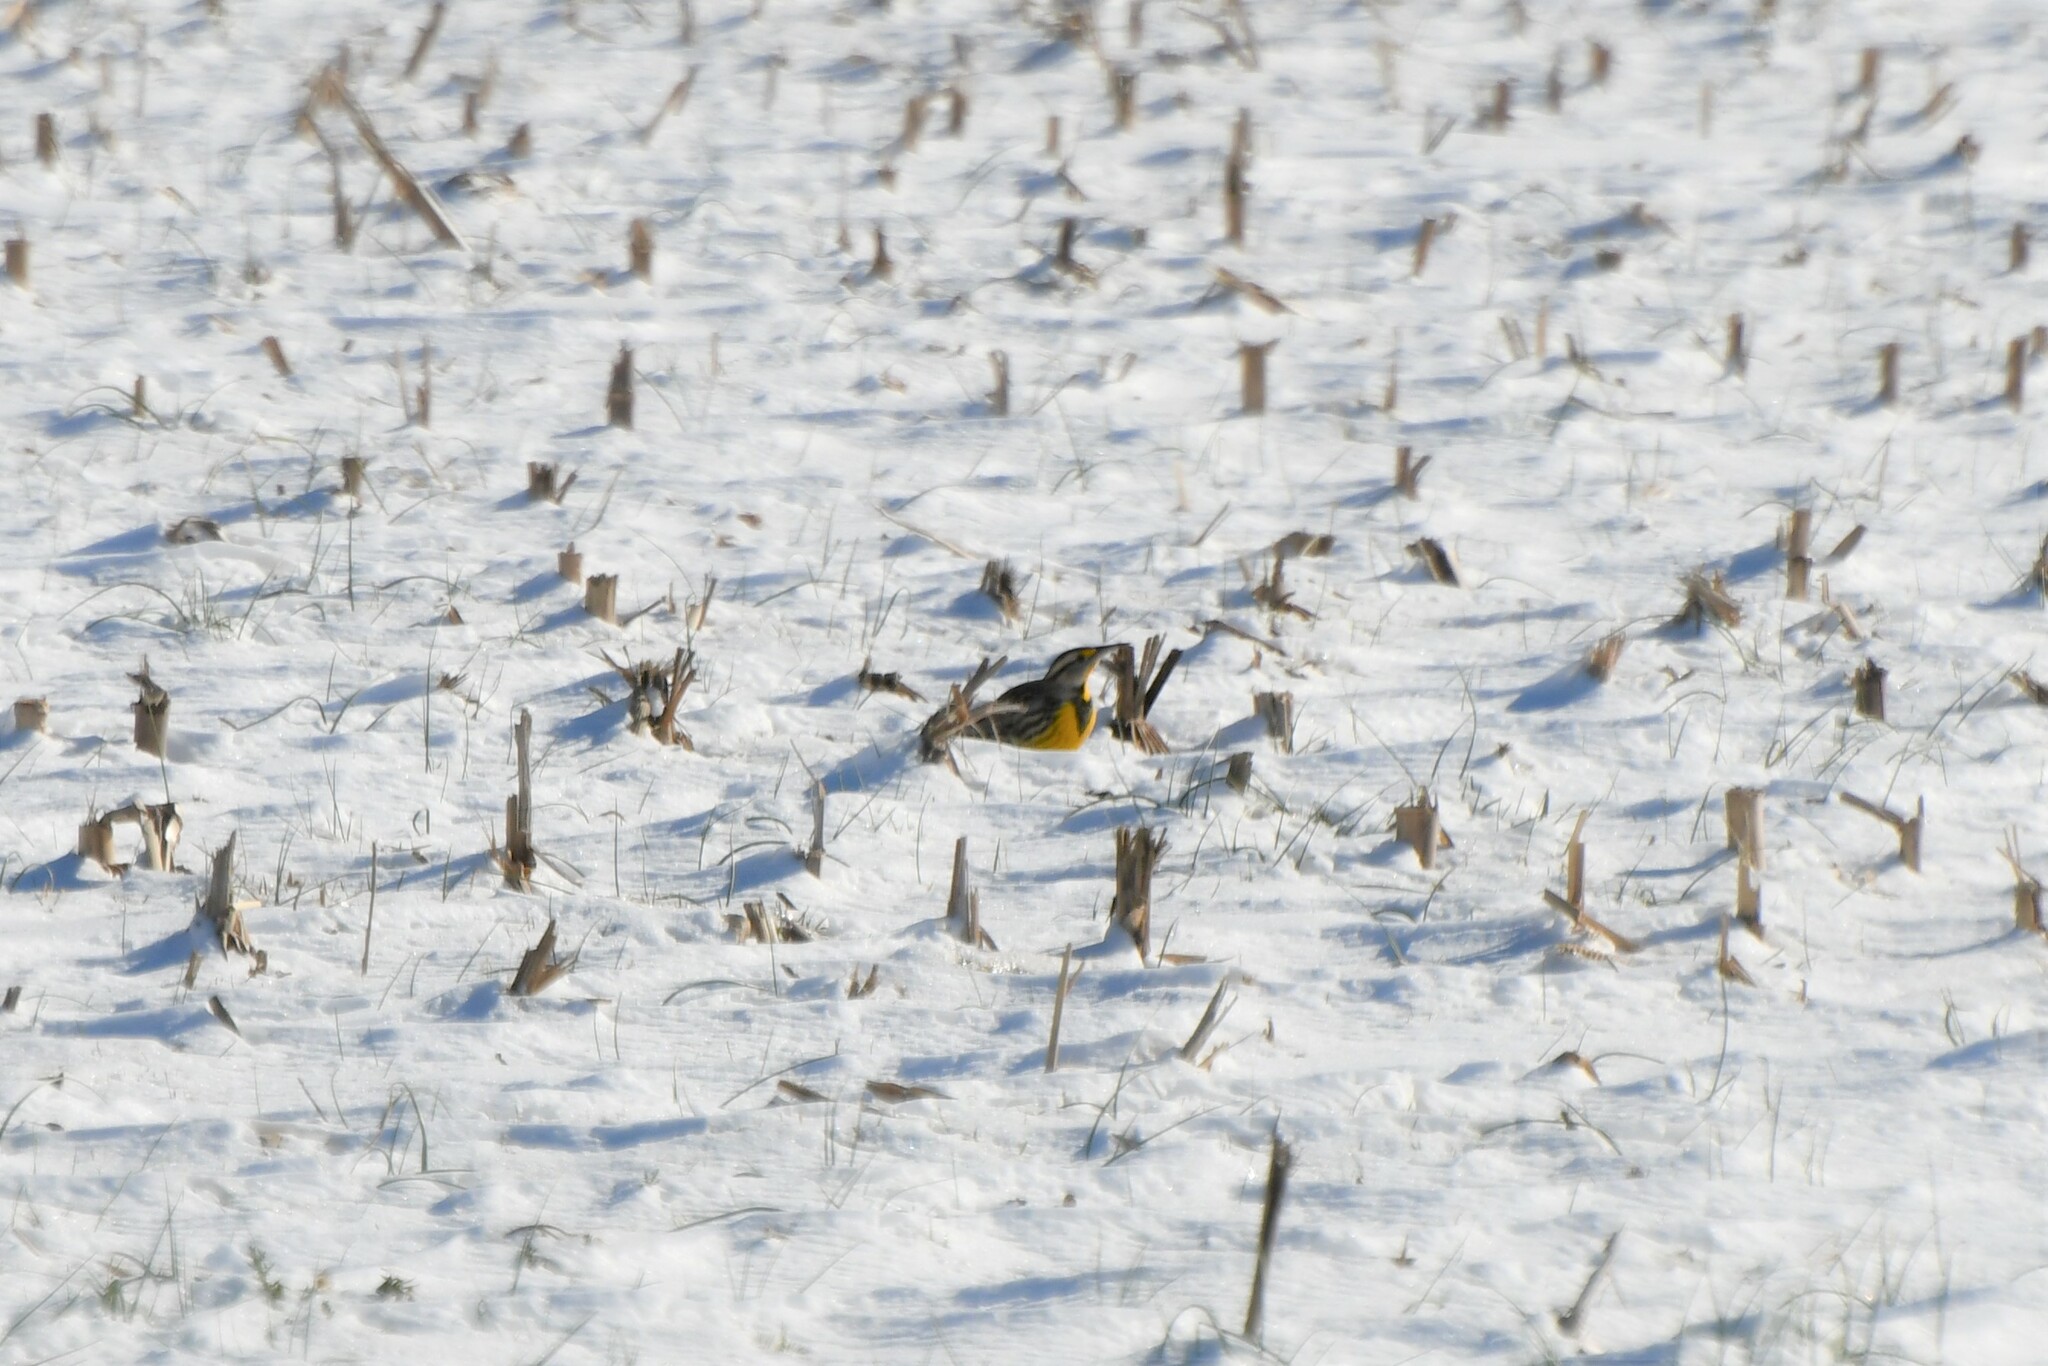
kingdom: Animalia
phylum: Chordata
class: Aves
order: Passeriformes
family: Icteridae
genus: Sturnella
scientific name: Sturnella magna
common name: Eastern meadowlark
